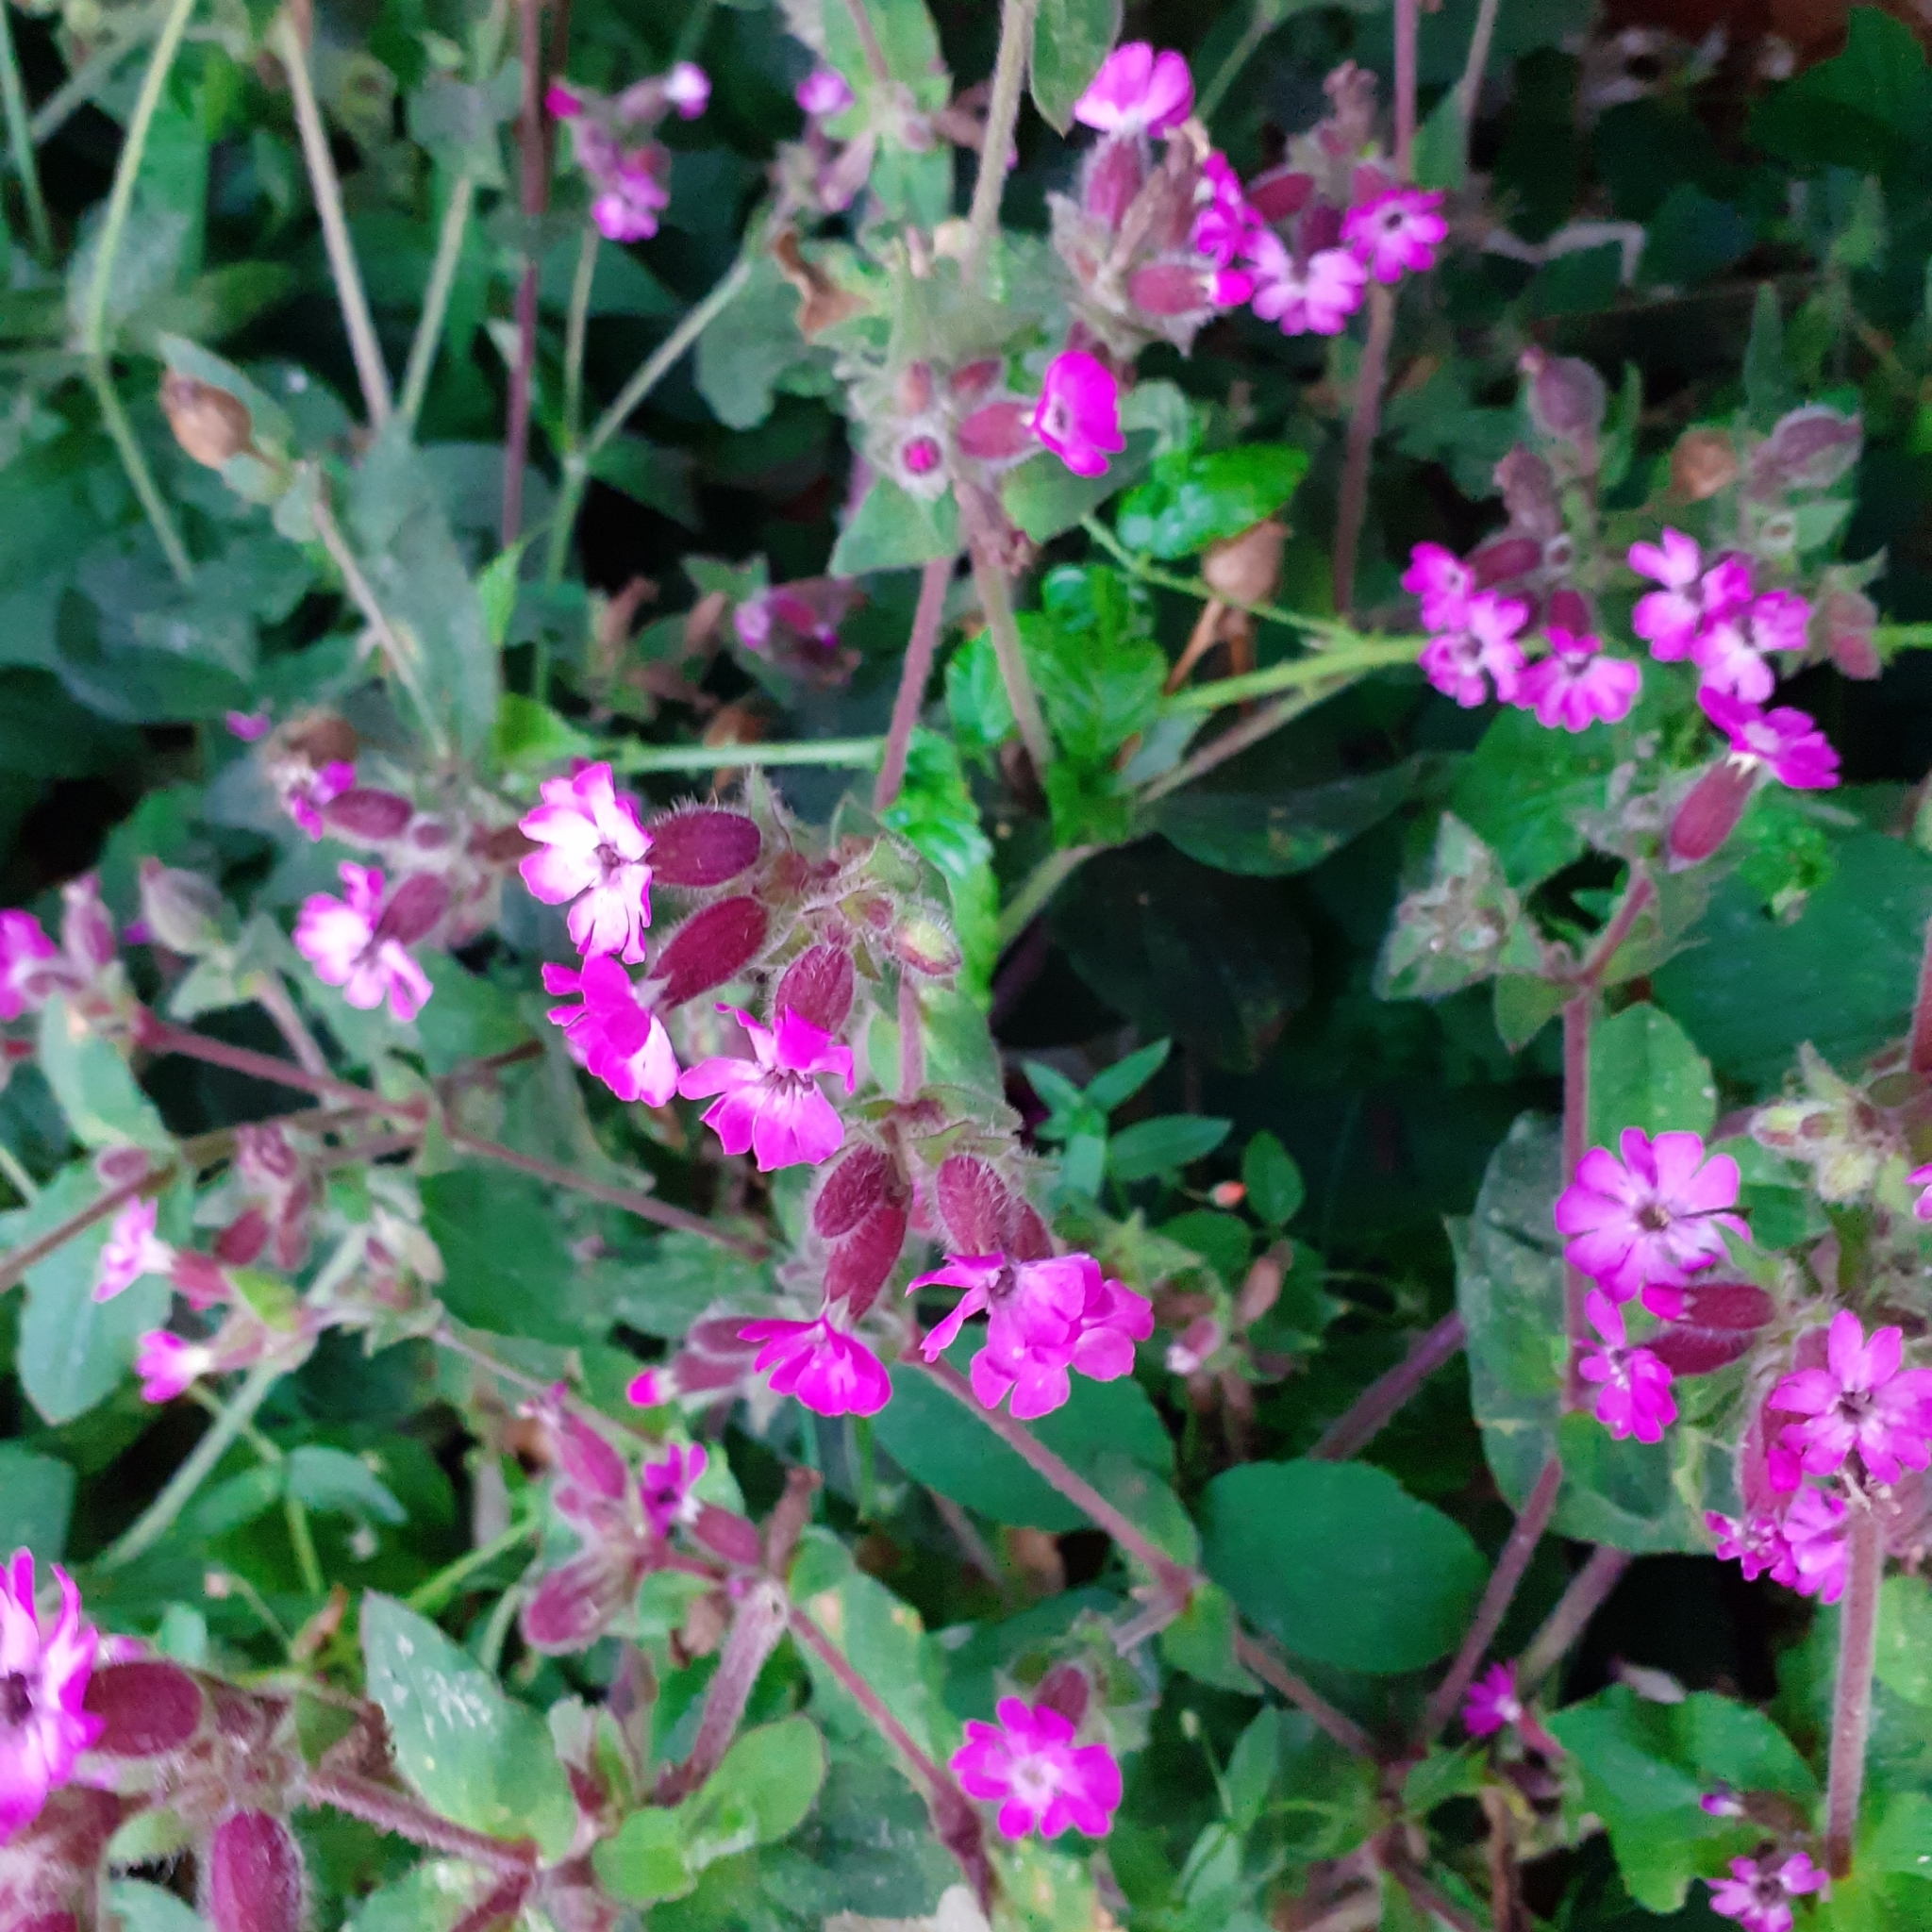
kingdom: Plantae
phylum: Tracheophyta
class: Magnoliopsida
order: Caryophyllales
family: Caryophyllaceae
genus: Silene
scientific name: Silene dioica
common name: Red campion
